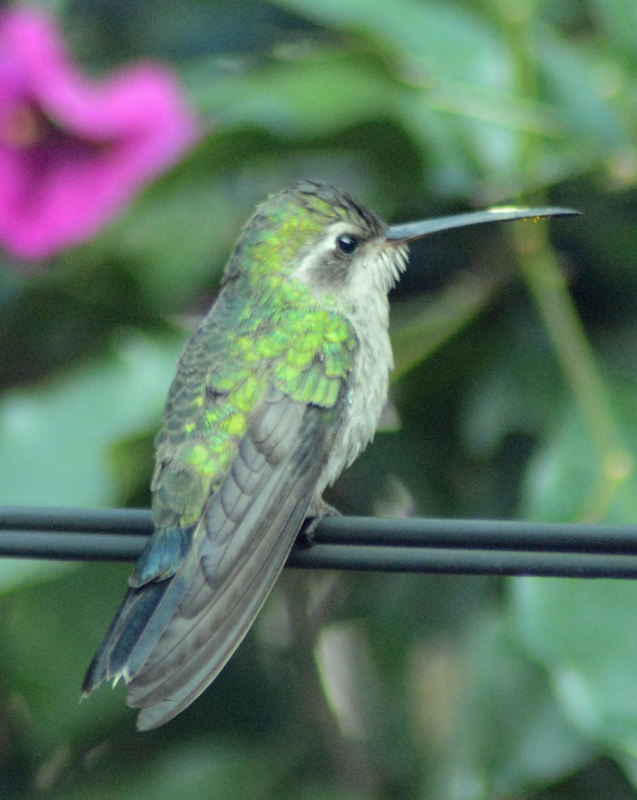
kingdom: Animalia
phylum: Chordata
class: Aves
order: Apodiformes
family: Trochilidae
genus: Cynanthus
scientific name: Cynanthus latirostris
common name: Broad-billed hummingbird
